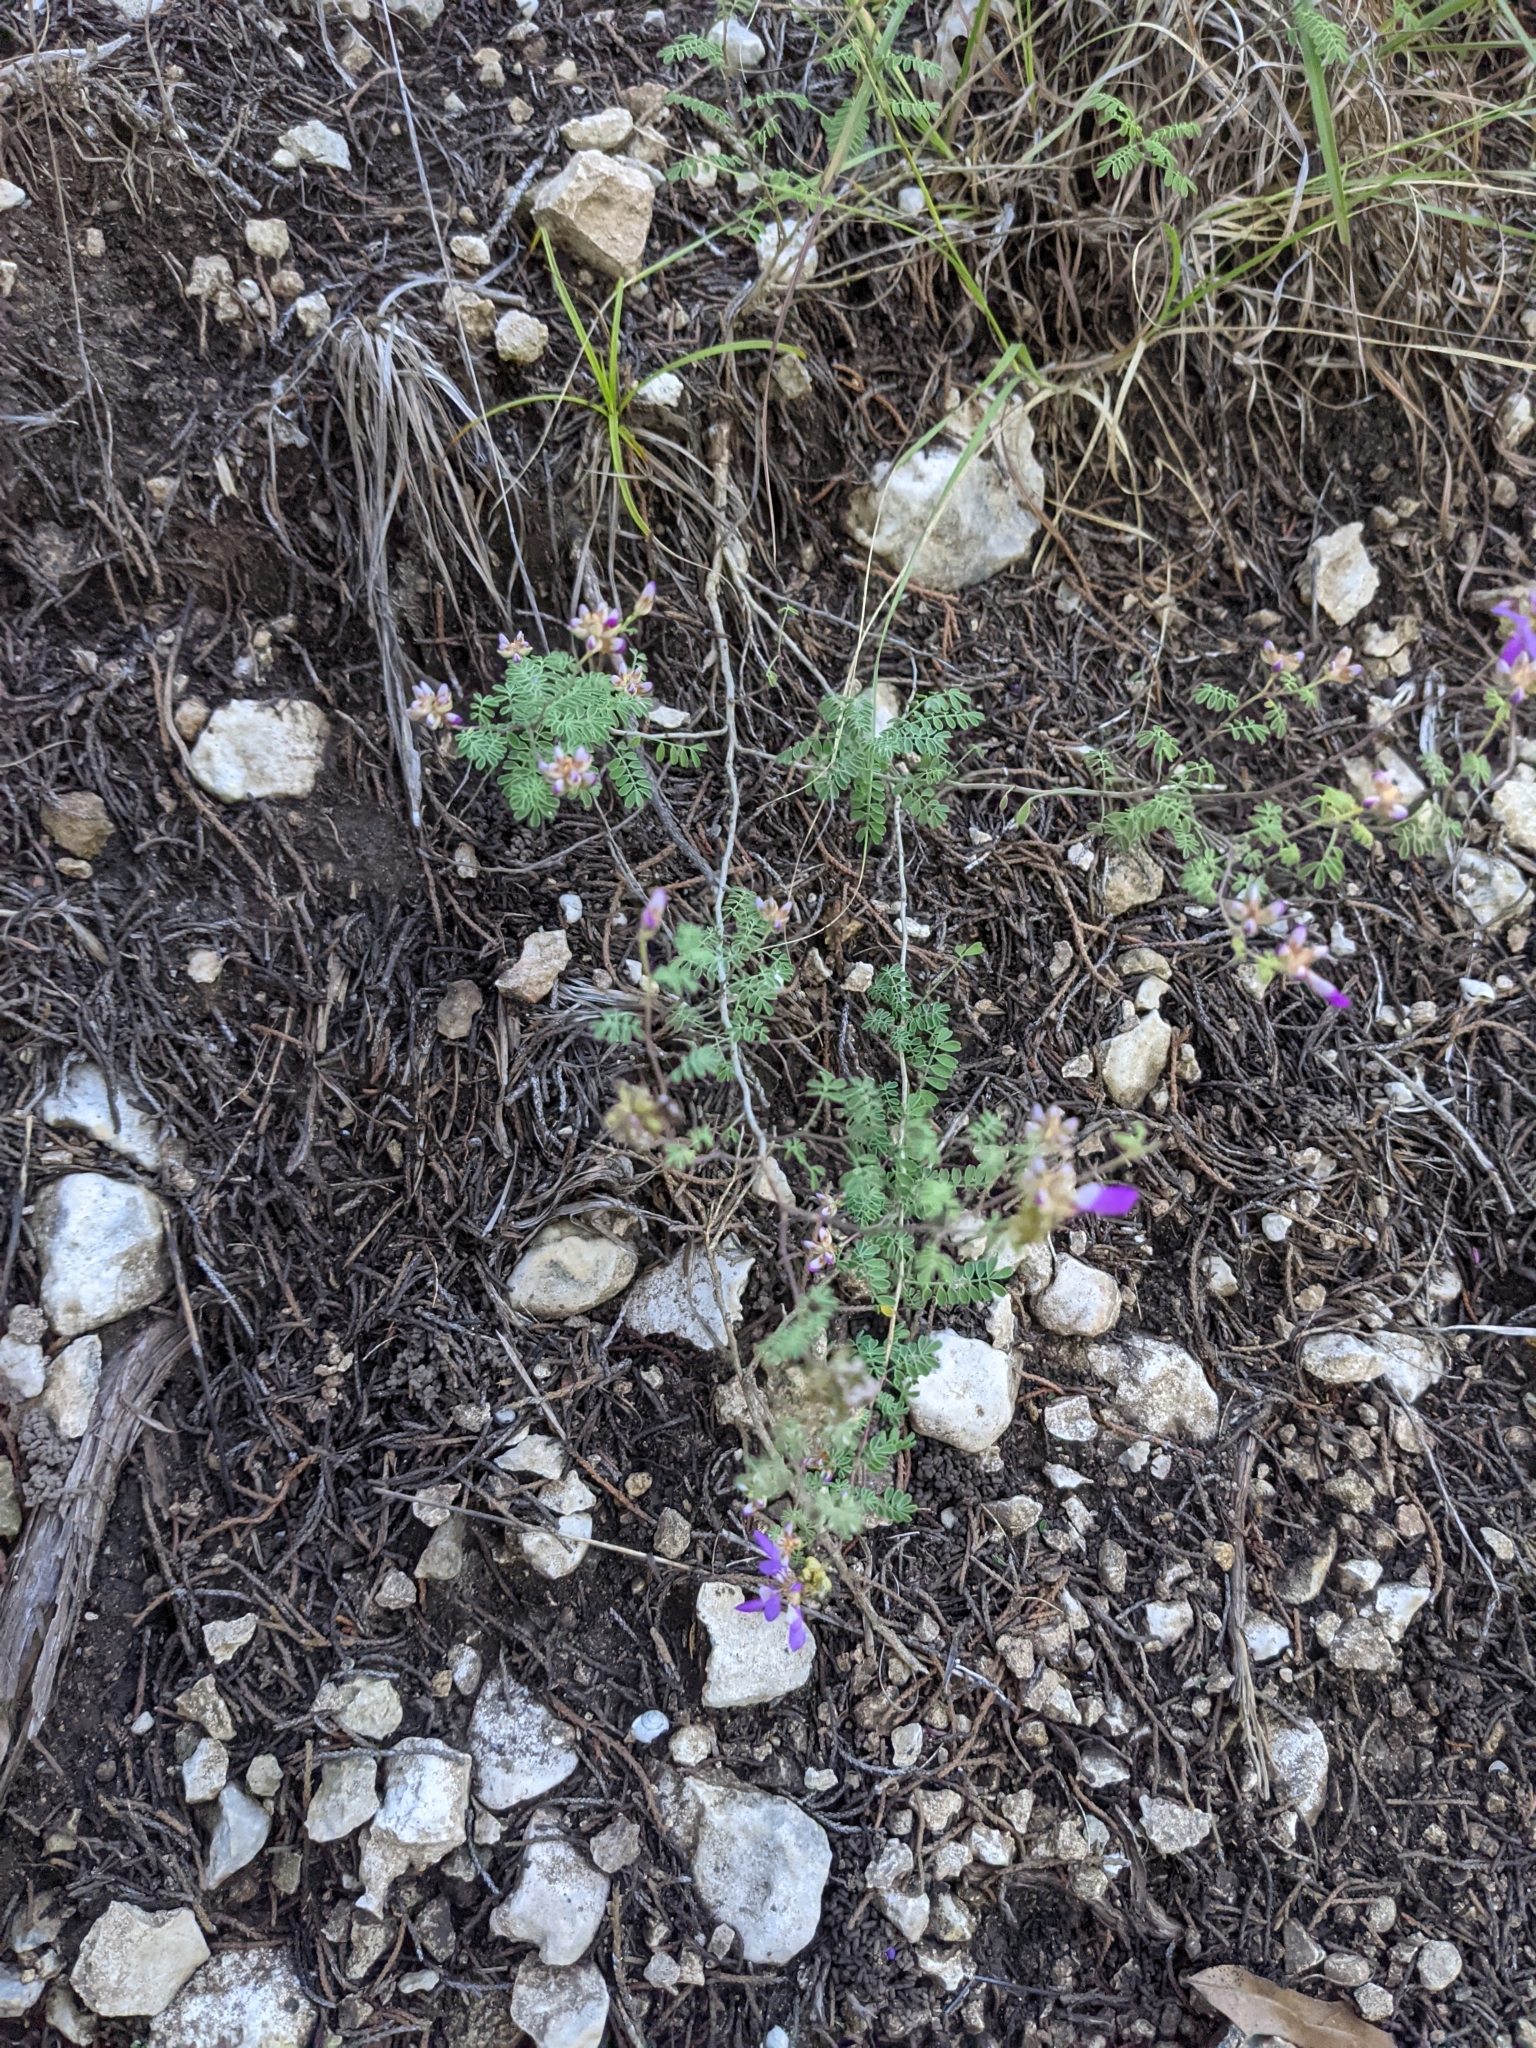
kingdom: Plantae
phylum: Tracheophyta
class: Magnoliopsida
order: Fabales
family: Fabaceae
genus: Dalea
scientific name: Dalea frutescens
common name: Black dalea
